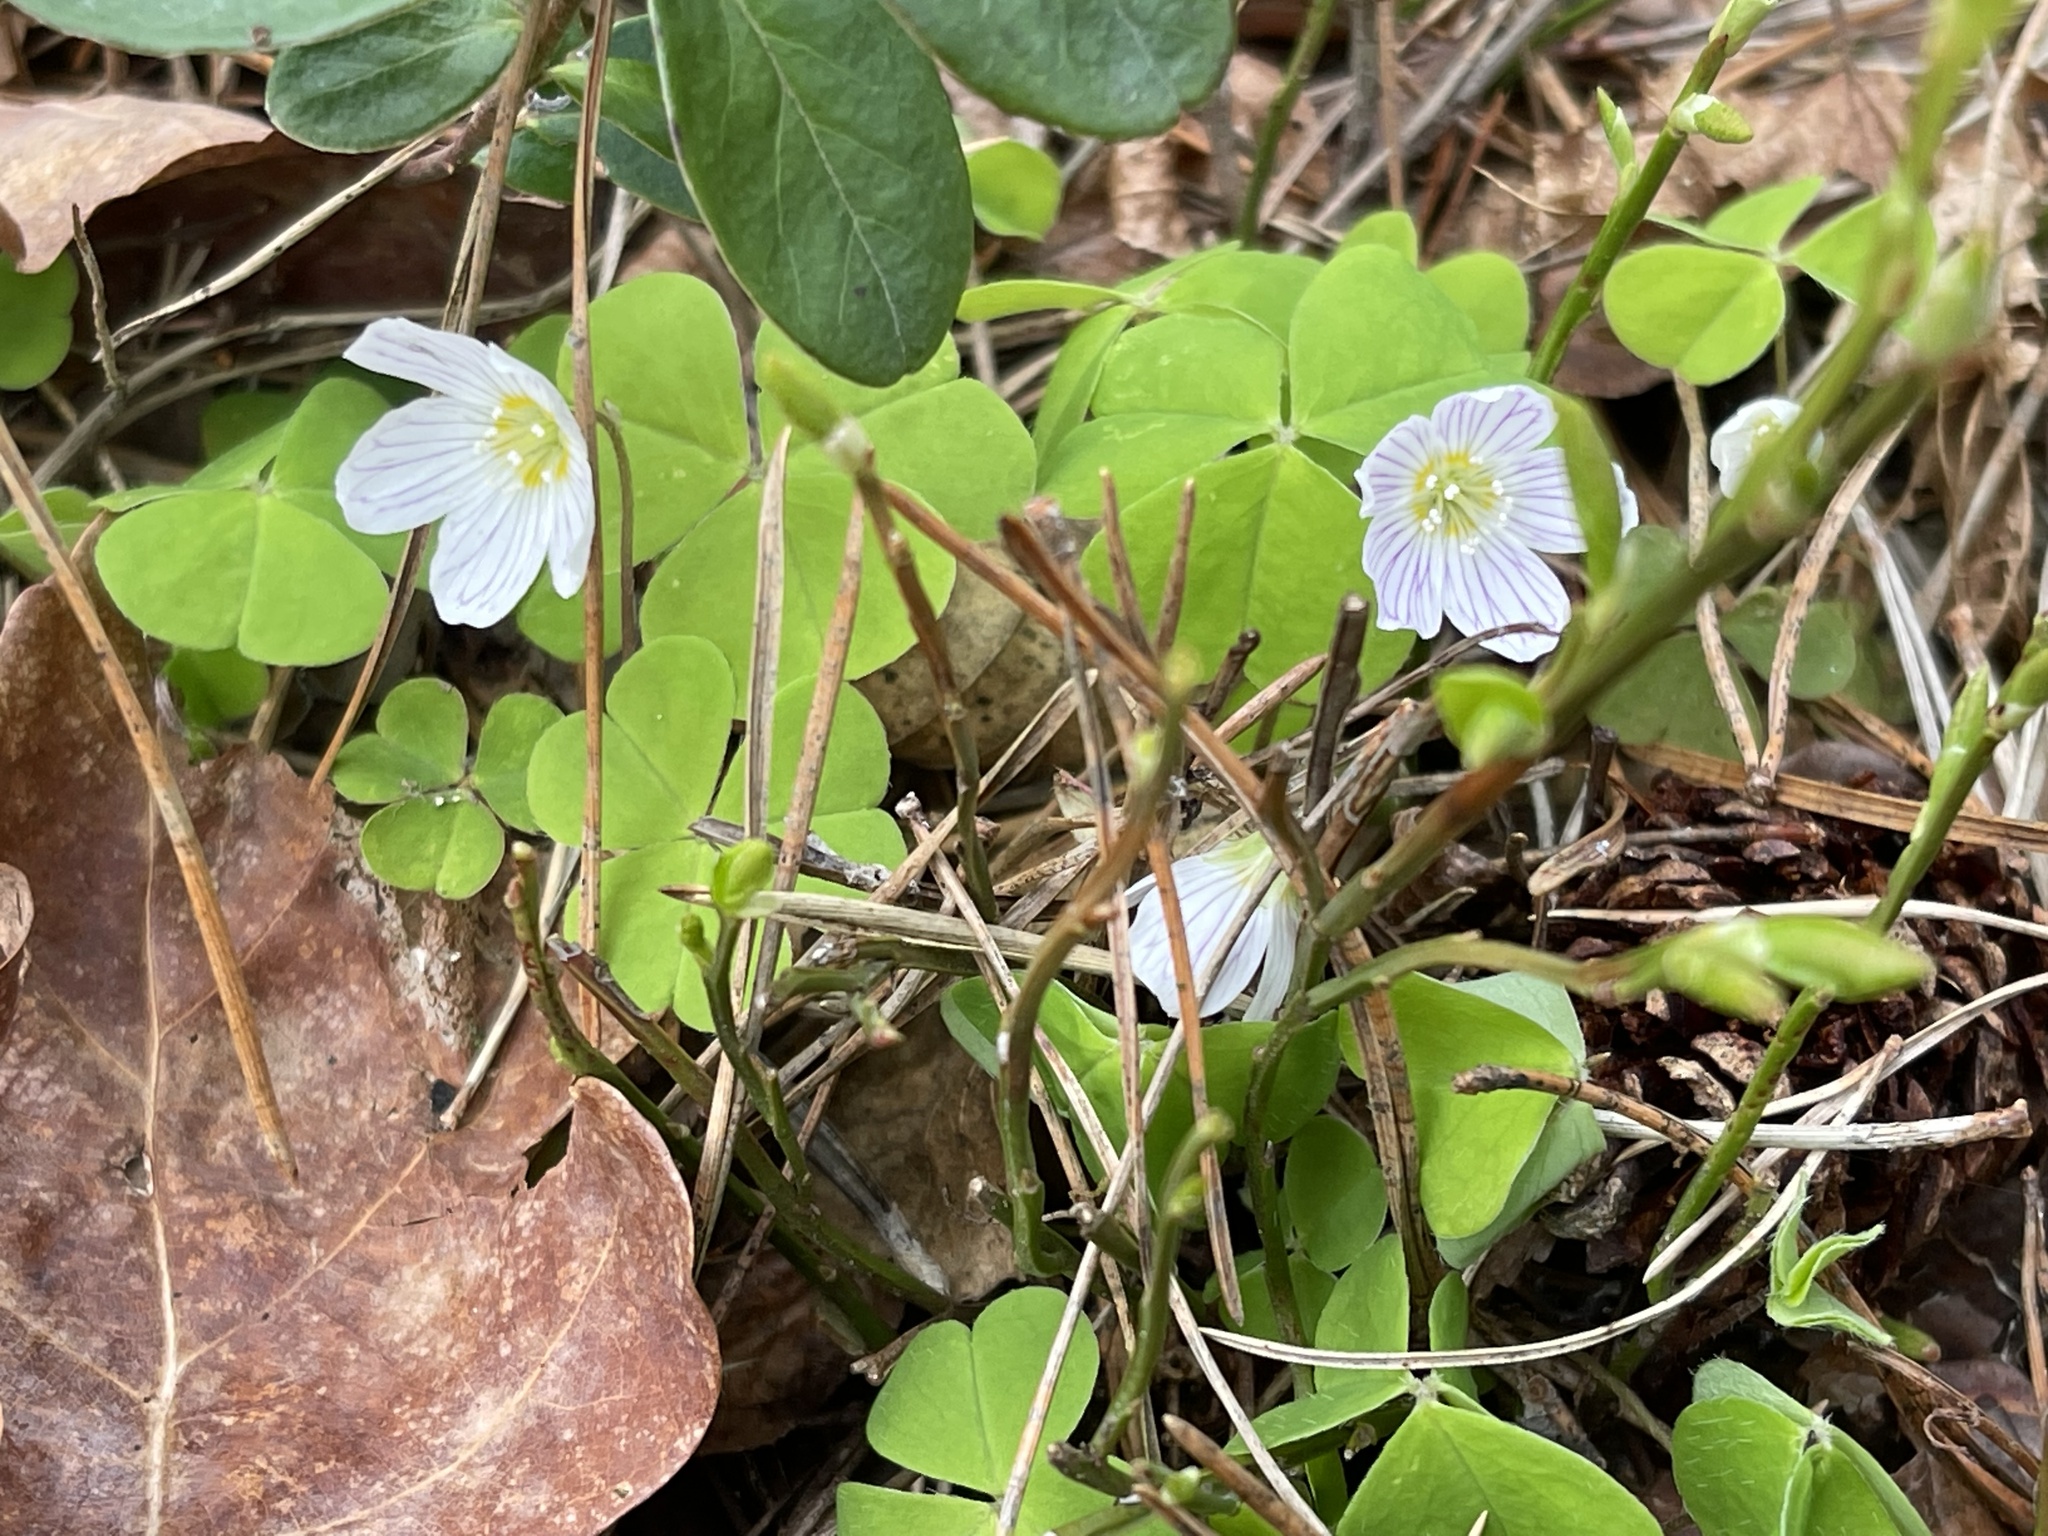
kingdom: Plantae
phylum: Tracheophyta
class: Magnoliopsida
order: Oxalidales
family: Oxalidaceae
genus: Oxalis
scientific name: Oxalis acetosella
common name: Wood-sorrel
